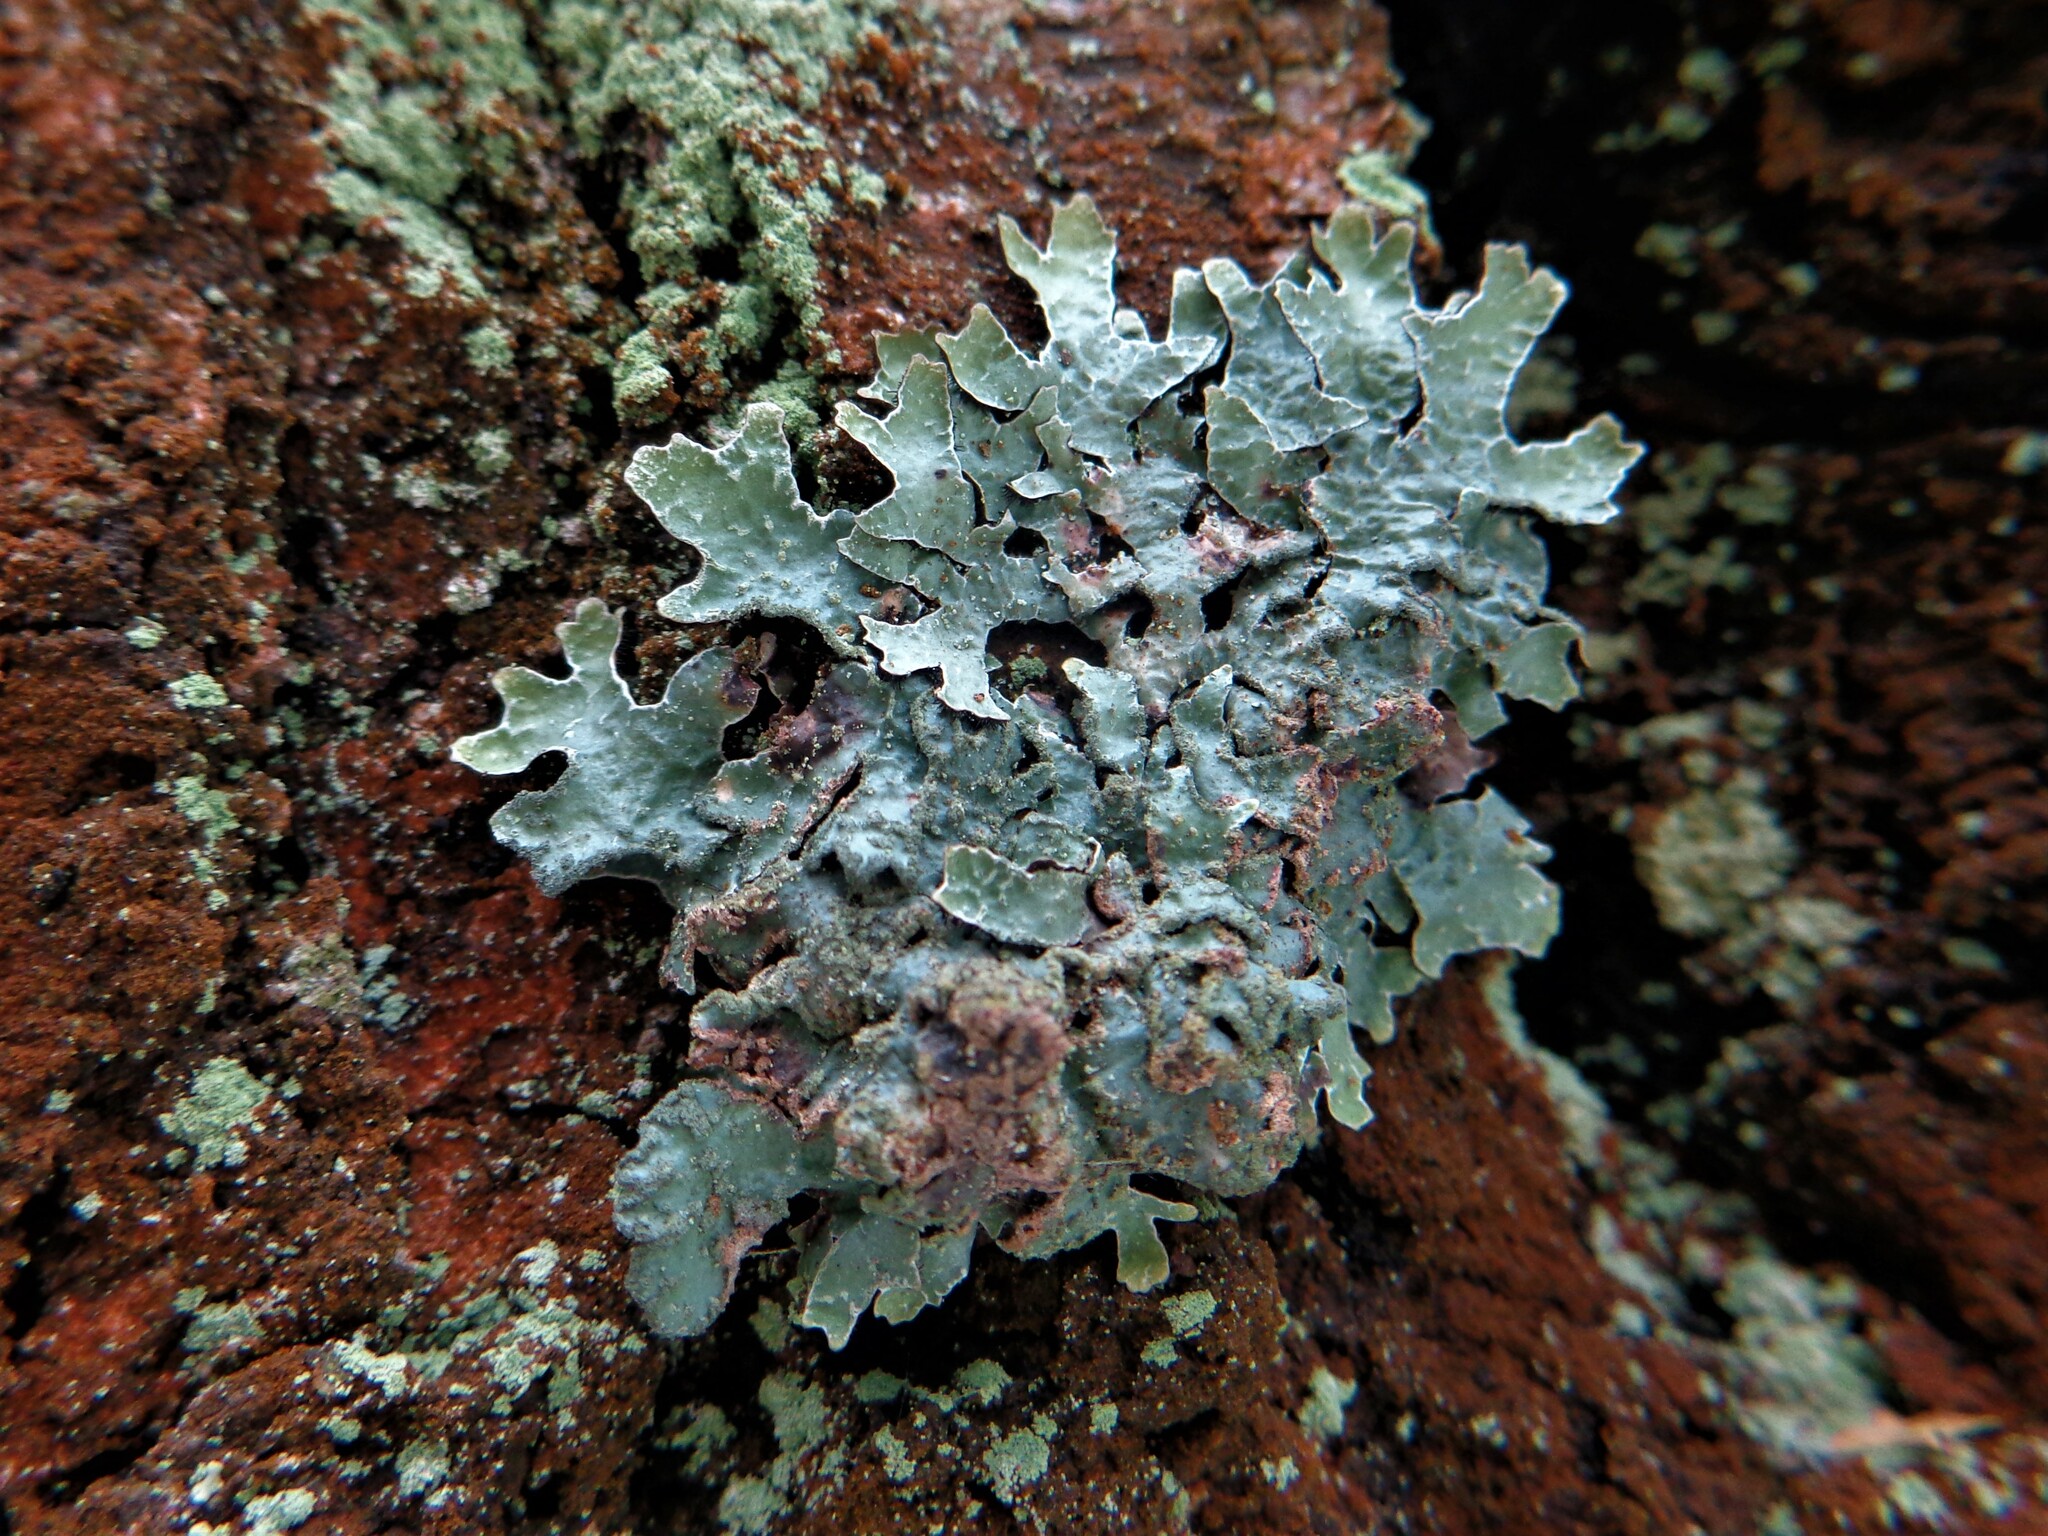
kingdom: Fungi
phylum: Ascomycota
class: Lecanoromycetes
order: Lecanorales
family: Parmeliaceae
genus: Parmelia
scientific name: Parmelia sulcata
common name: Netted shield lichen
